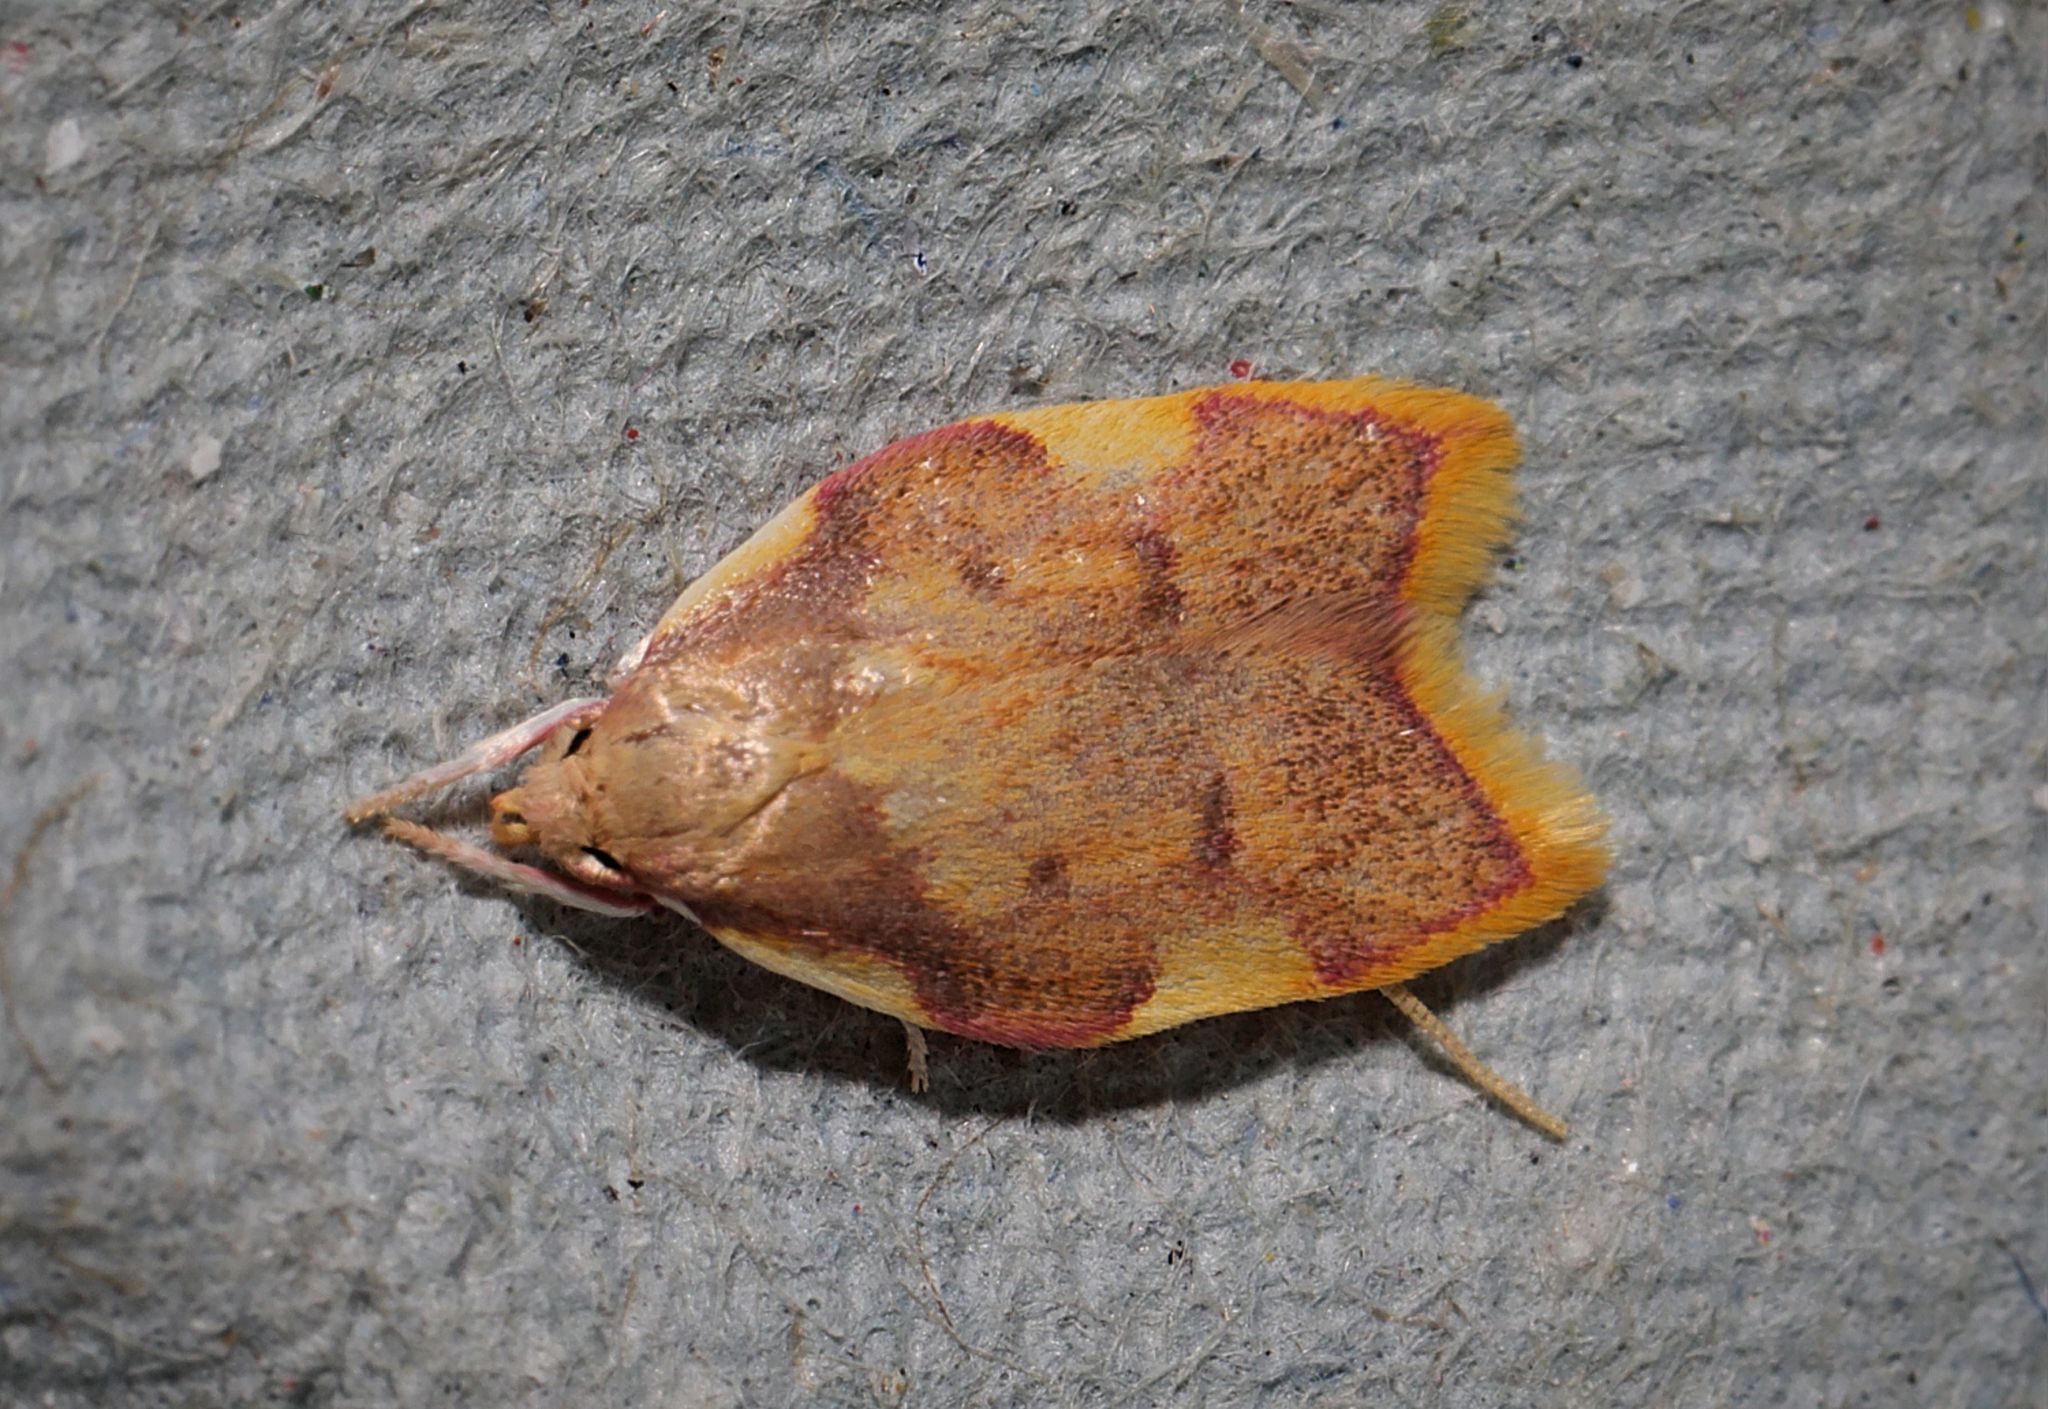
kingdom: Animalia
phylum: Arthropoda
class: Insecta
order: Lepidoptera
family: Peleopodidae
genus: Carcina
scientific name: Carcina quercana
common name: Moth
